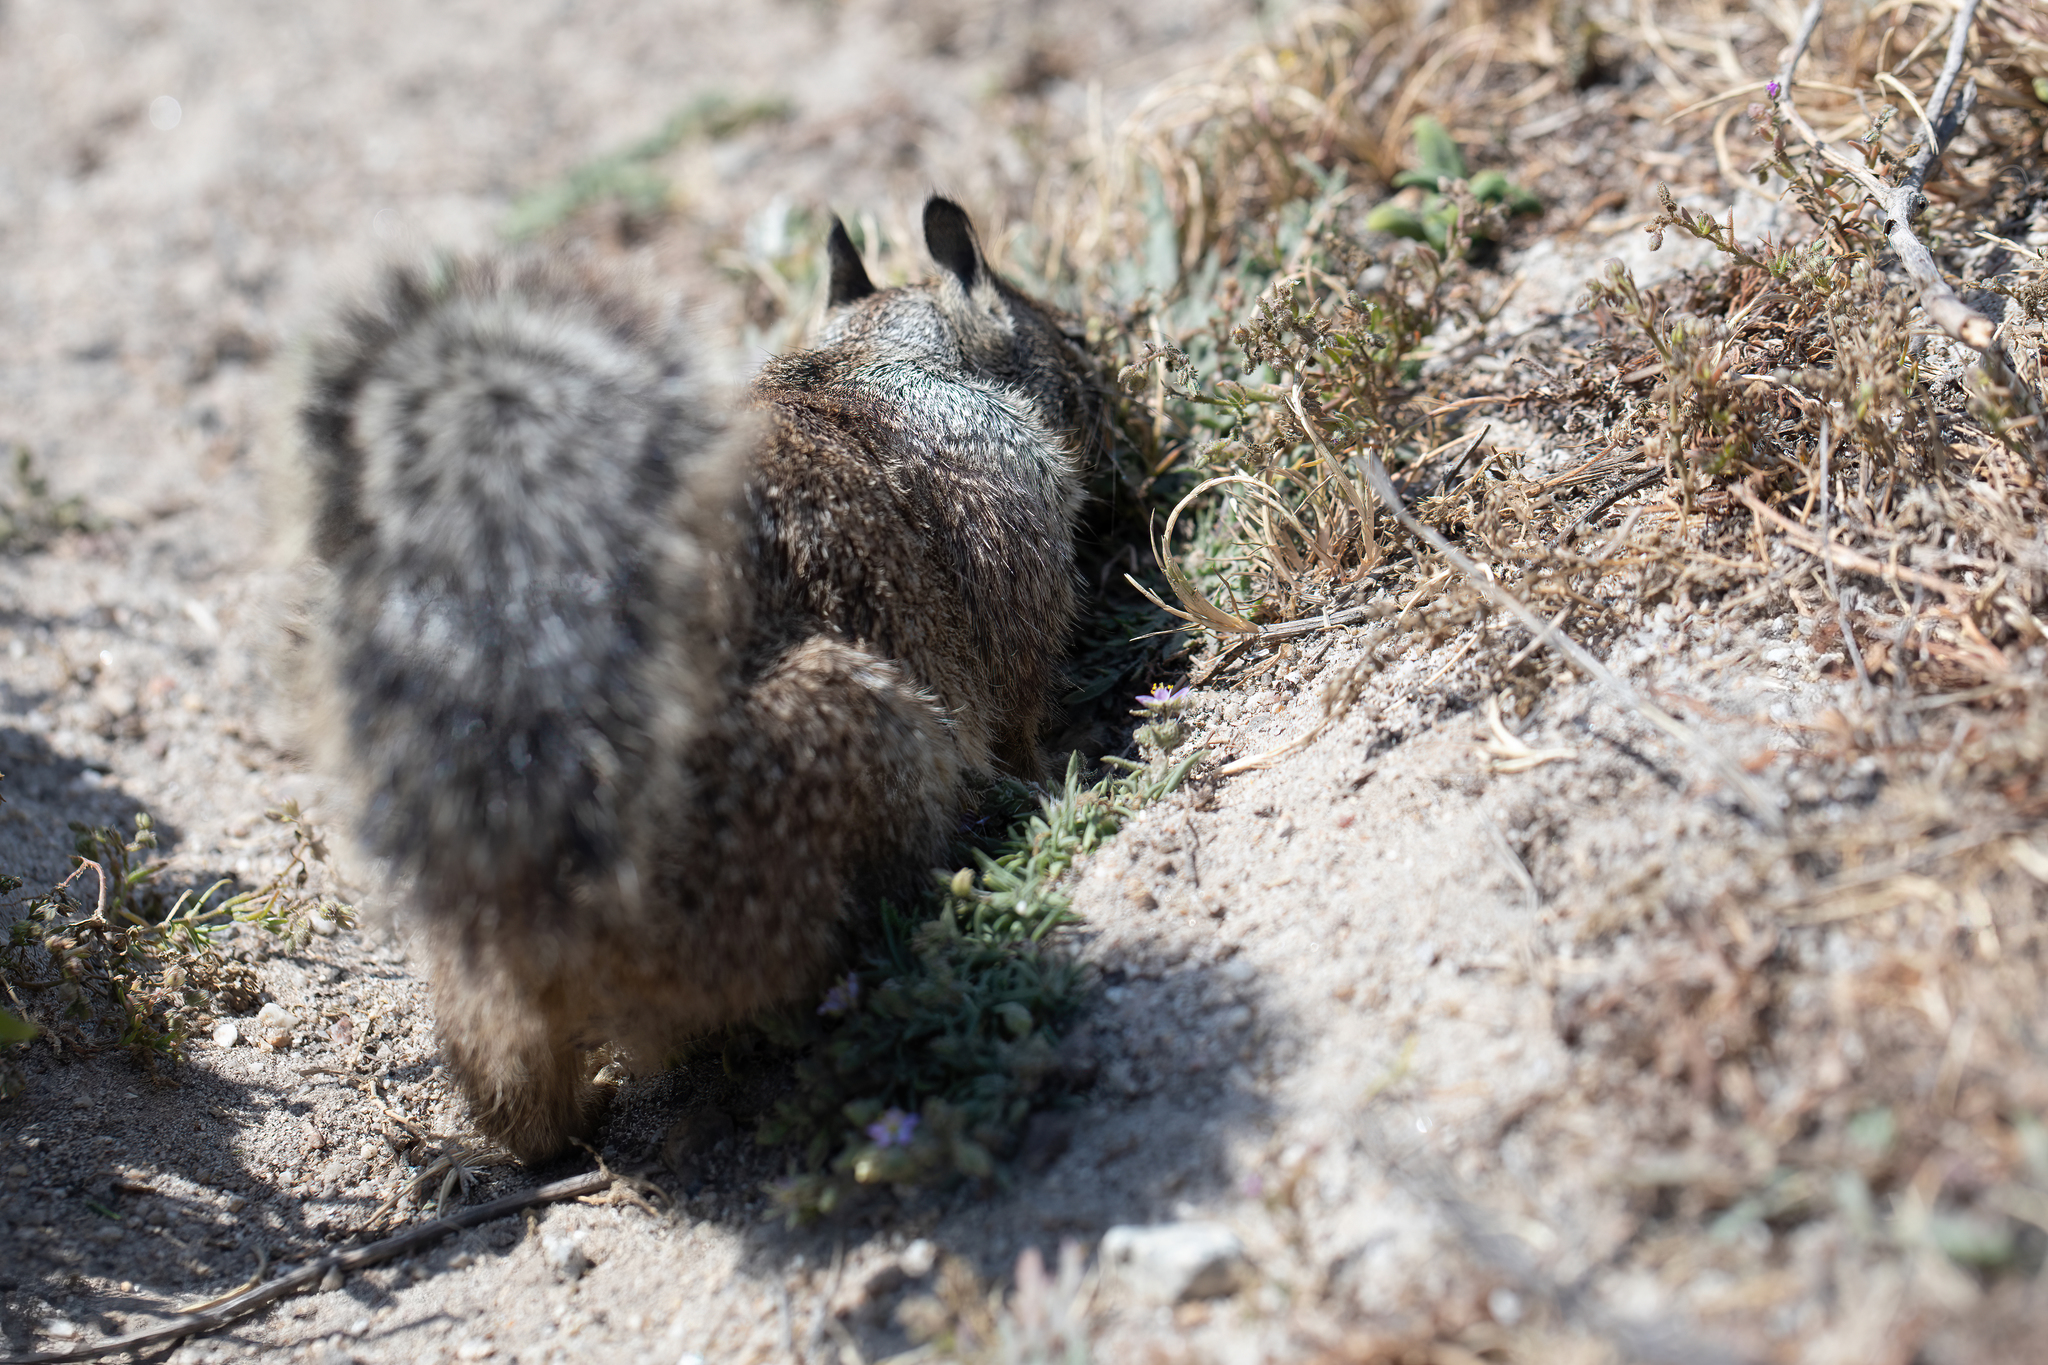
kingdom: Animalia
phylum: Chordata
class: Mammalia
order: Rodentia
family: Sciuridae
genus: Otospermophilus
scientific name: Otospermophilus beecheyi
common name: California ground squirrel
